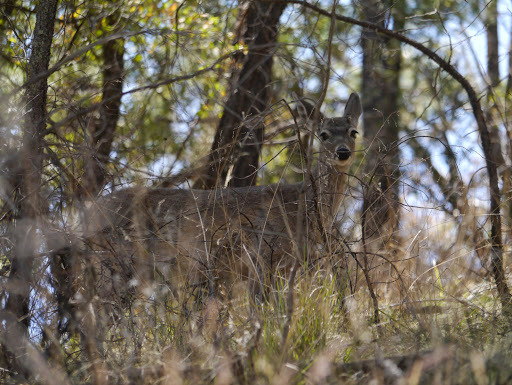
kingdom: Animalia
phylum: Chordata
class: Mammalia
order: Artiodactyla
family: Cervidae
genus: Odocoileus
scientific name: Odocoileus virginianus
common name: White-tailed deer
